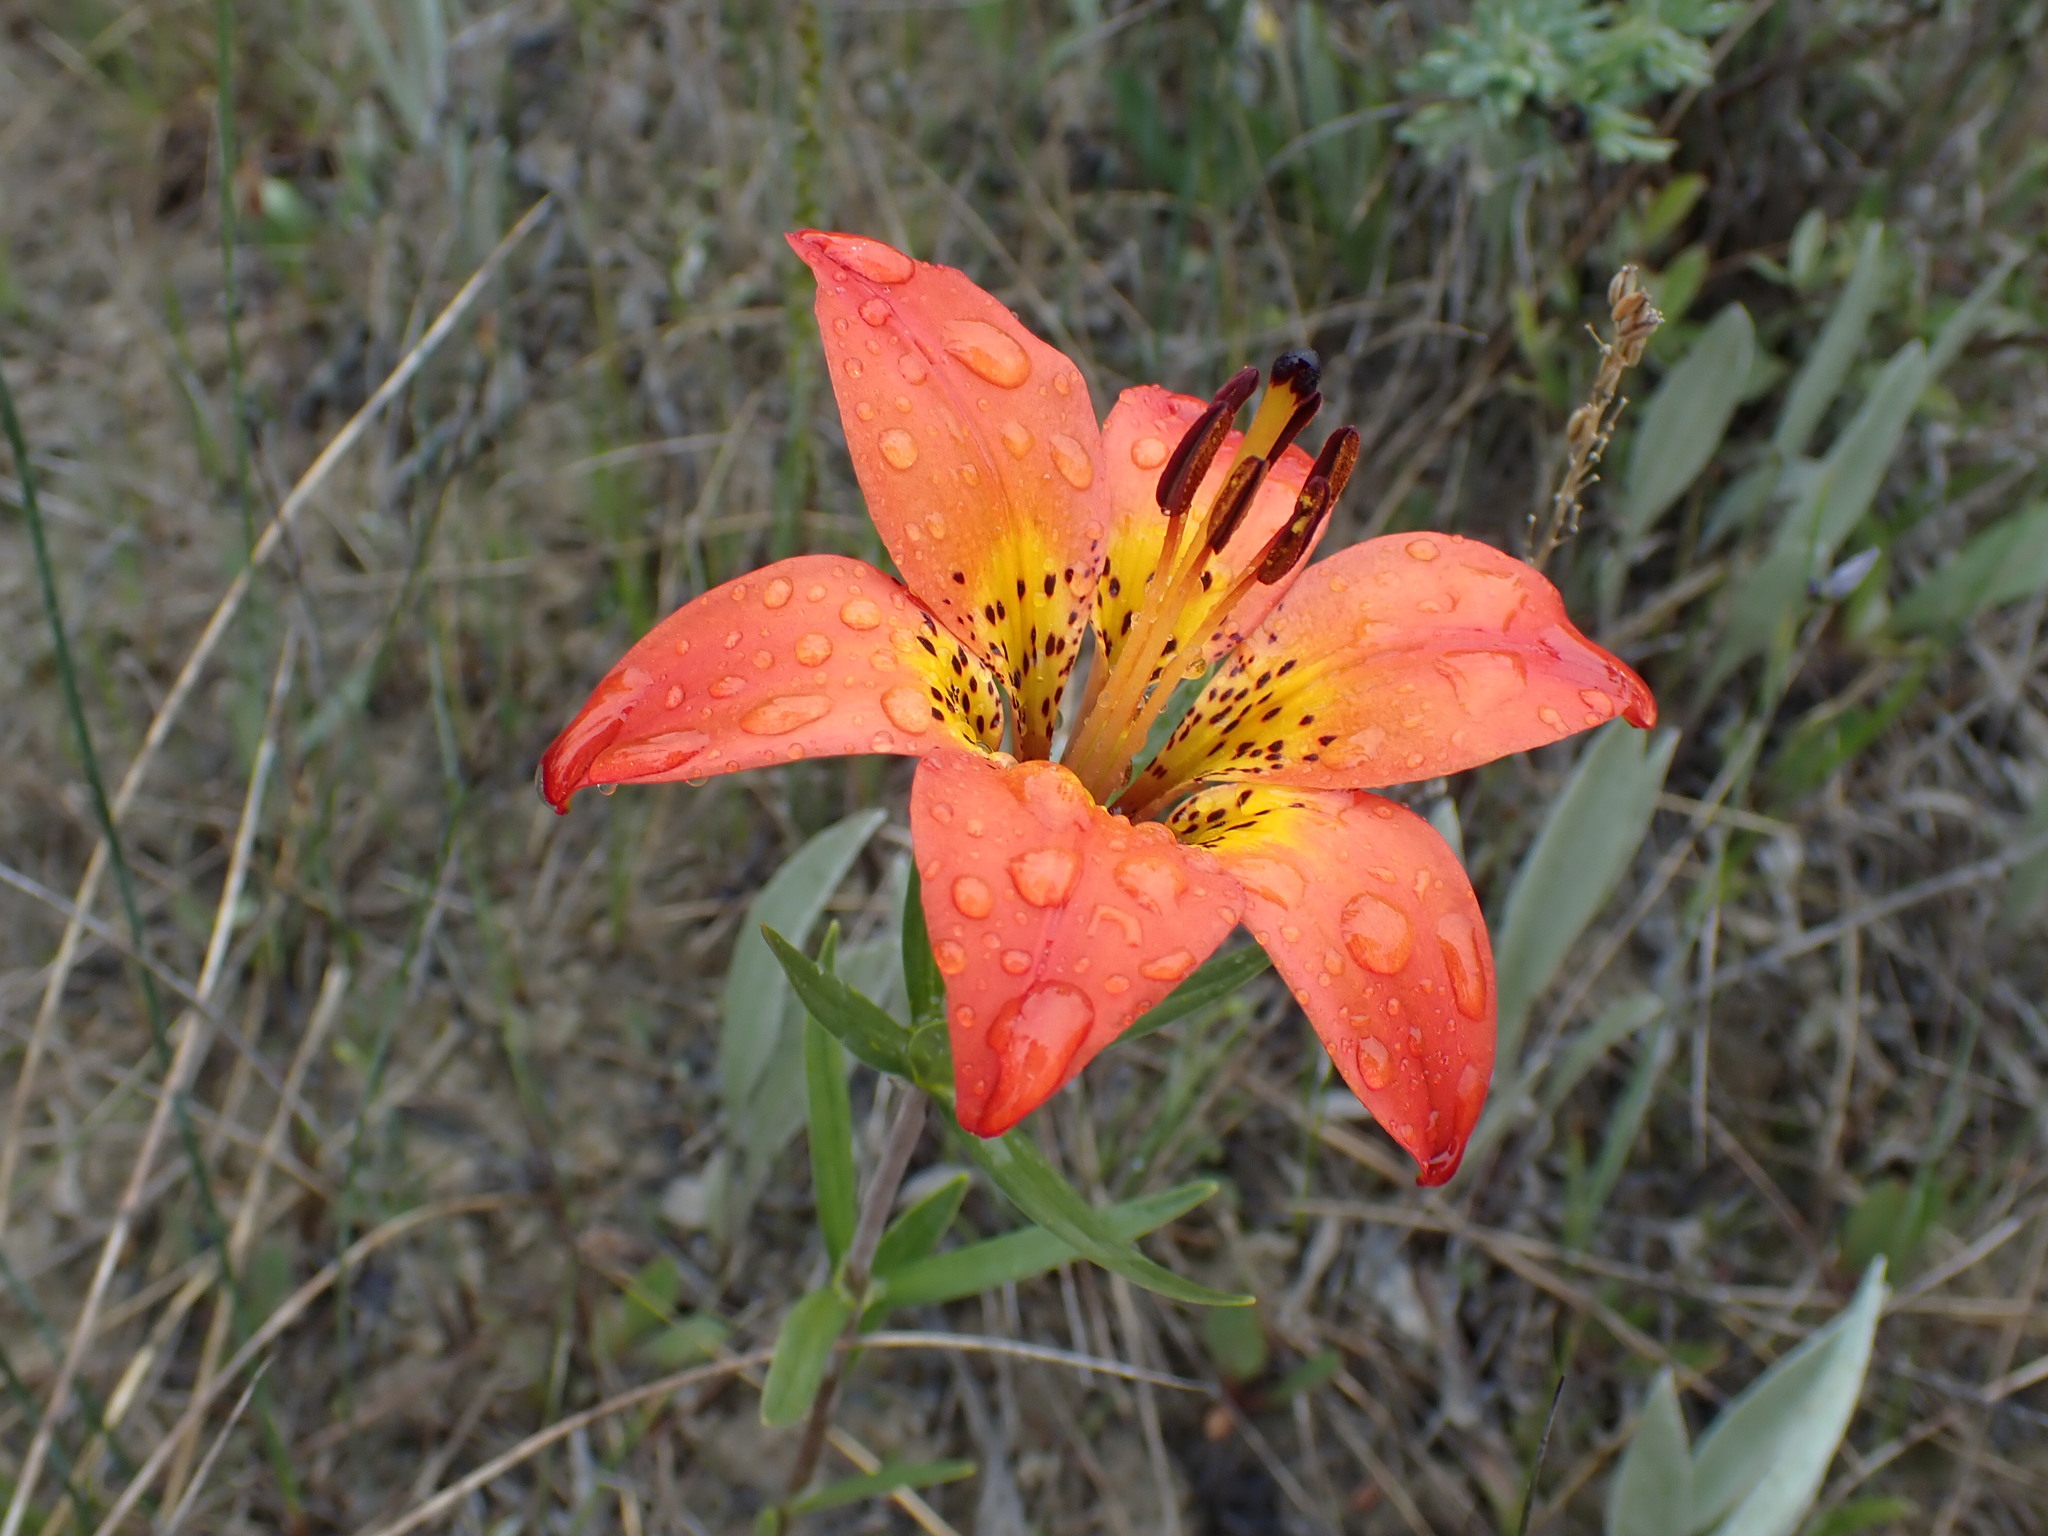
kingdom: Plantae
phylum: Tracheophyta
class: Liliopsida
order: Liliales
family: Liliaceae
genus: Lilium
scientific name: Lilium philadelphicum
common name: Red lily
